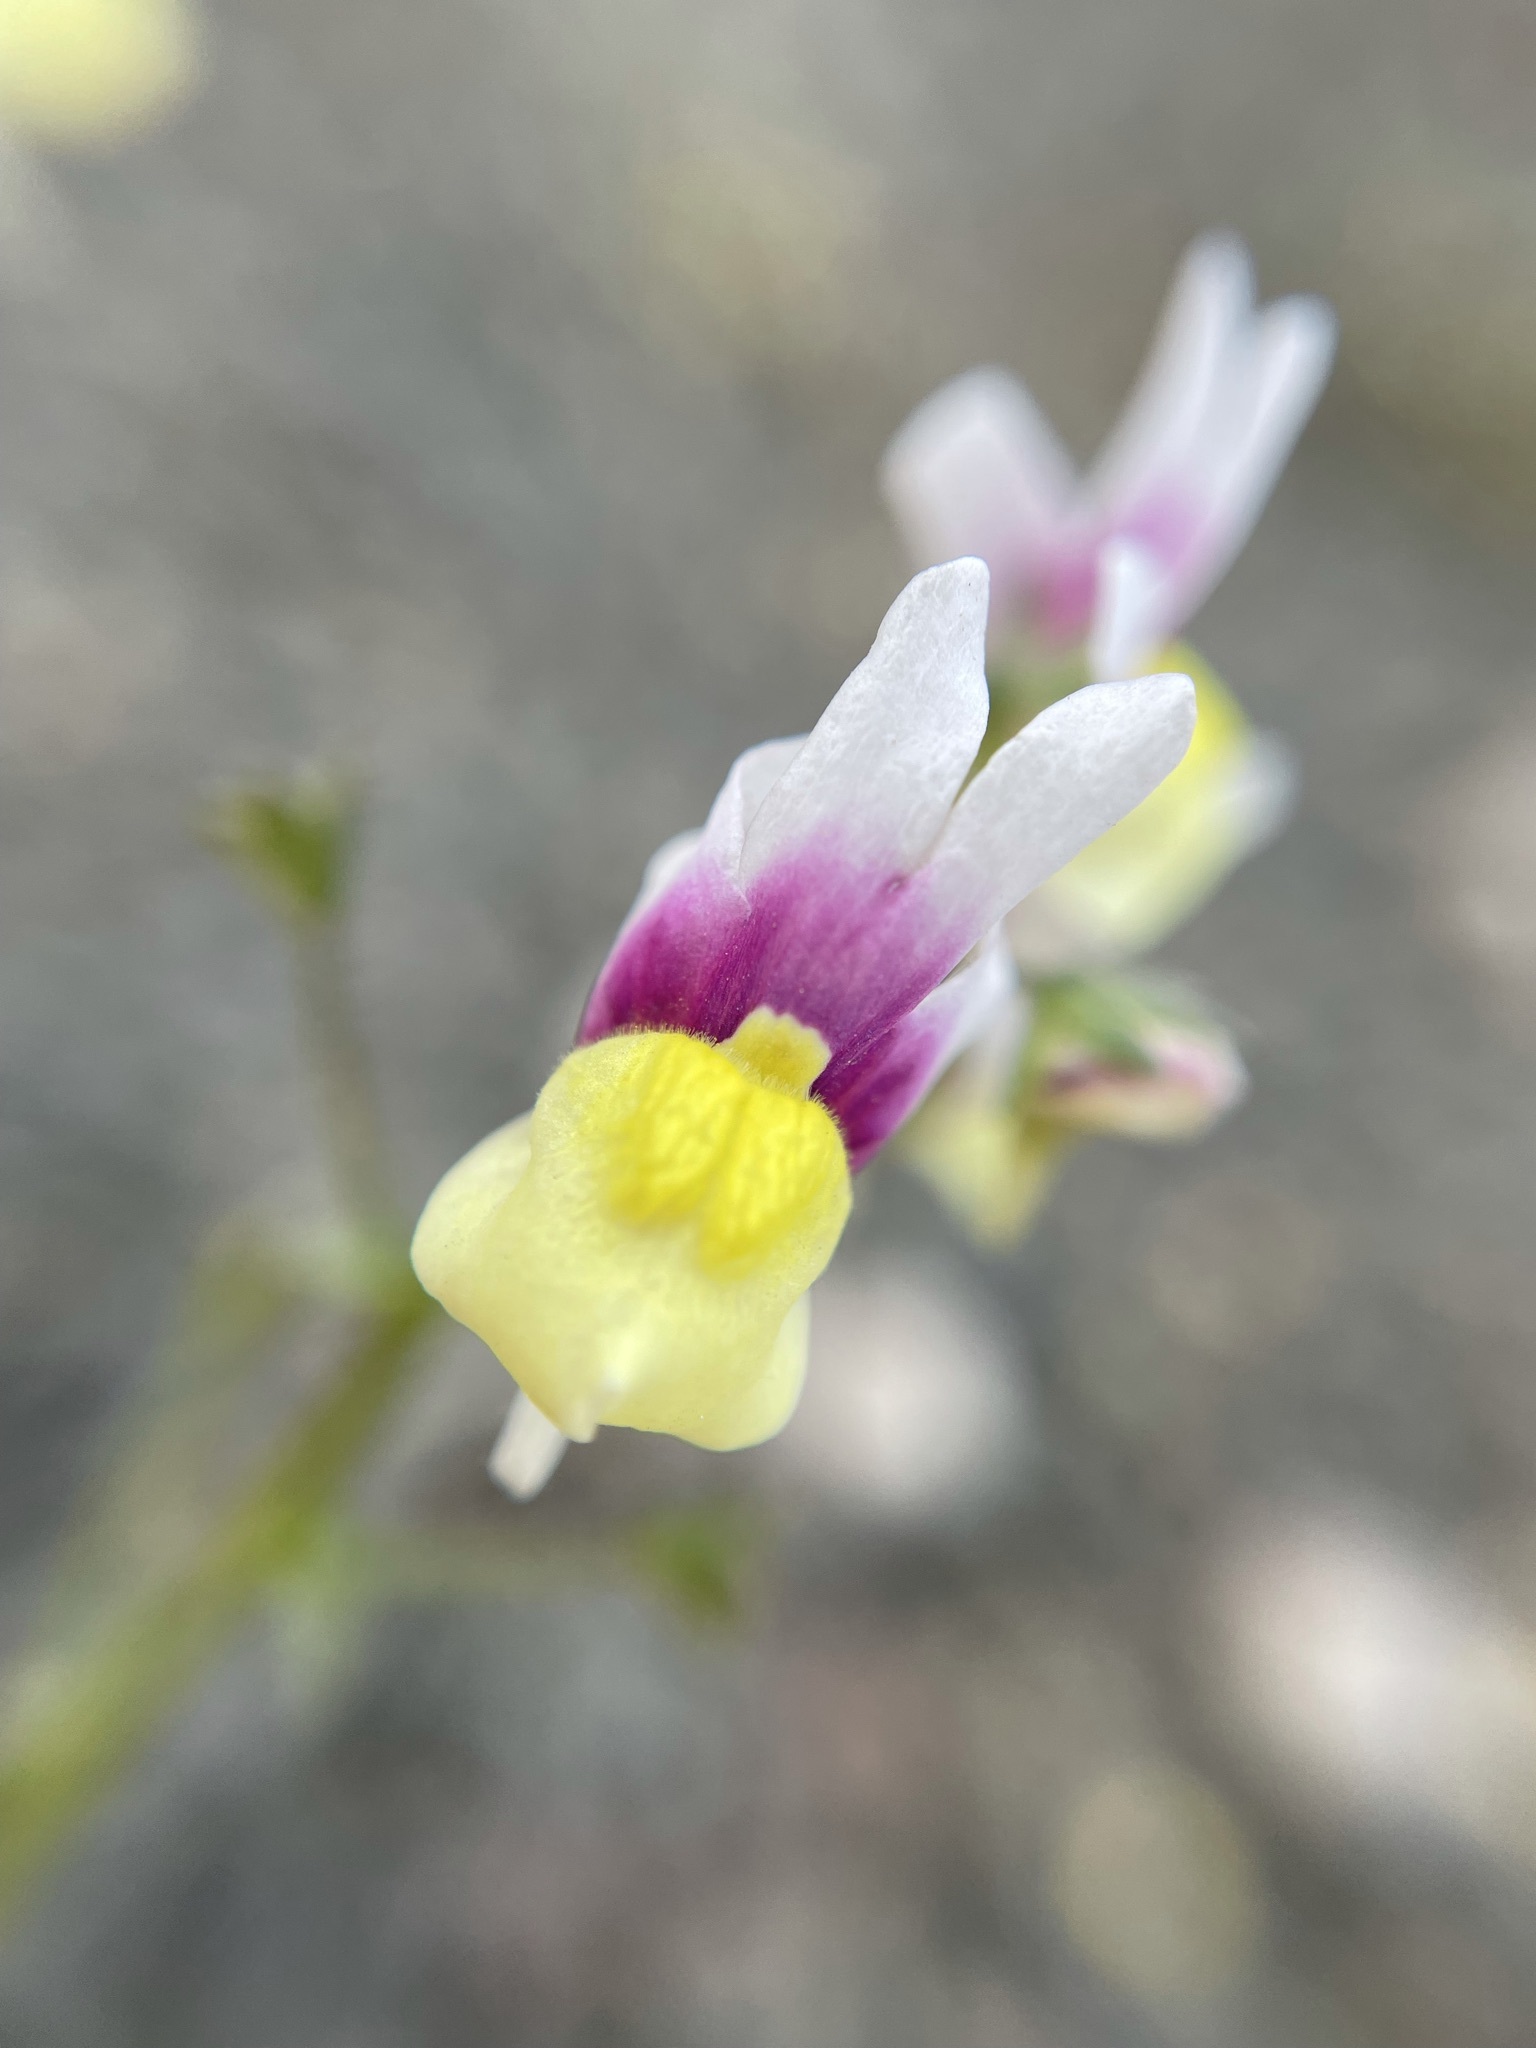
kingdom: Plantae
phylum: Tracheophyta
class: Magnoliopsida
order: Lamiales
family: Scrophulariaceae
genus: Nemesia
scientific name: Nemesia suaveolens
